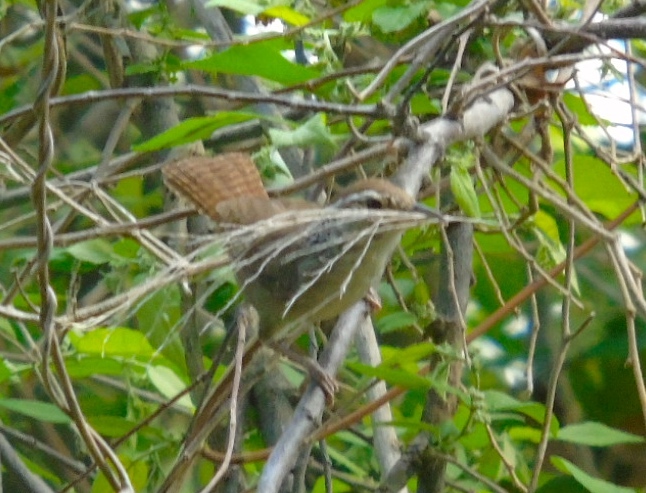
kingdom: Animalia
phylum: Chordata
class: Aves
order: Passeriformes
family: Troglodytidae
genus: Thryophilus
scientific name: Thryophilus sinaloa
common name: Sinaloa wren
